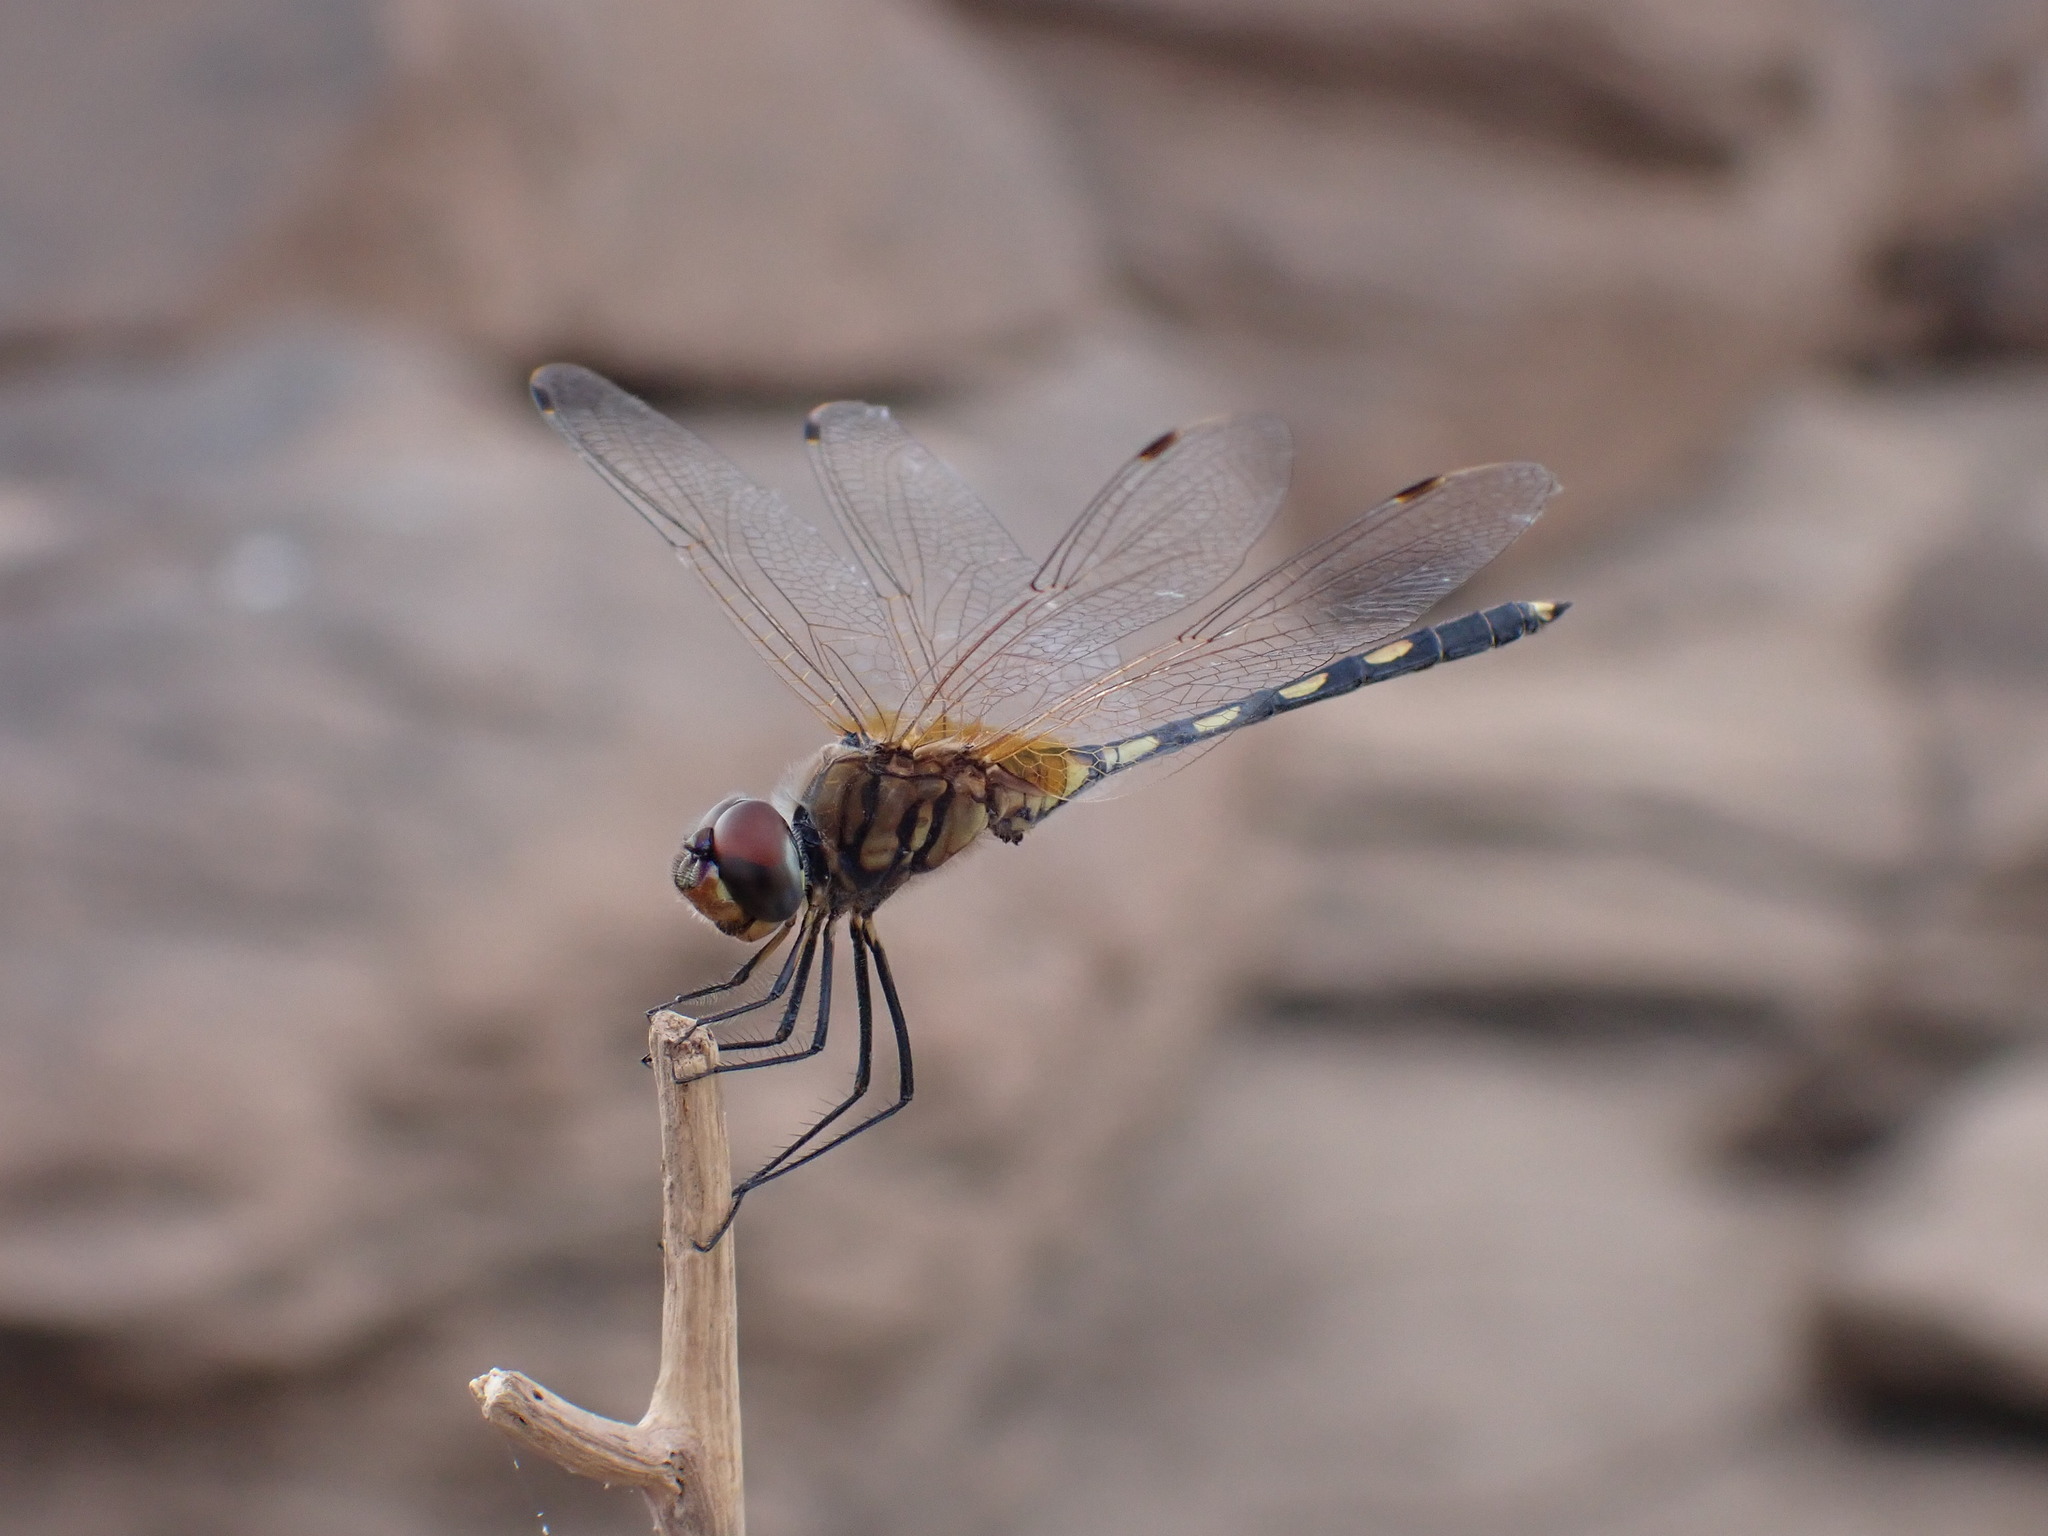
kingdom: Animalia
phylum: Arthropoda
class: Insecta
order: Odonata
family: Libellulidae
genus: Trithemis
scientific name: Trithemis pallidinervis
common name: Dancing dropwing
